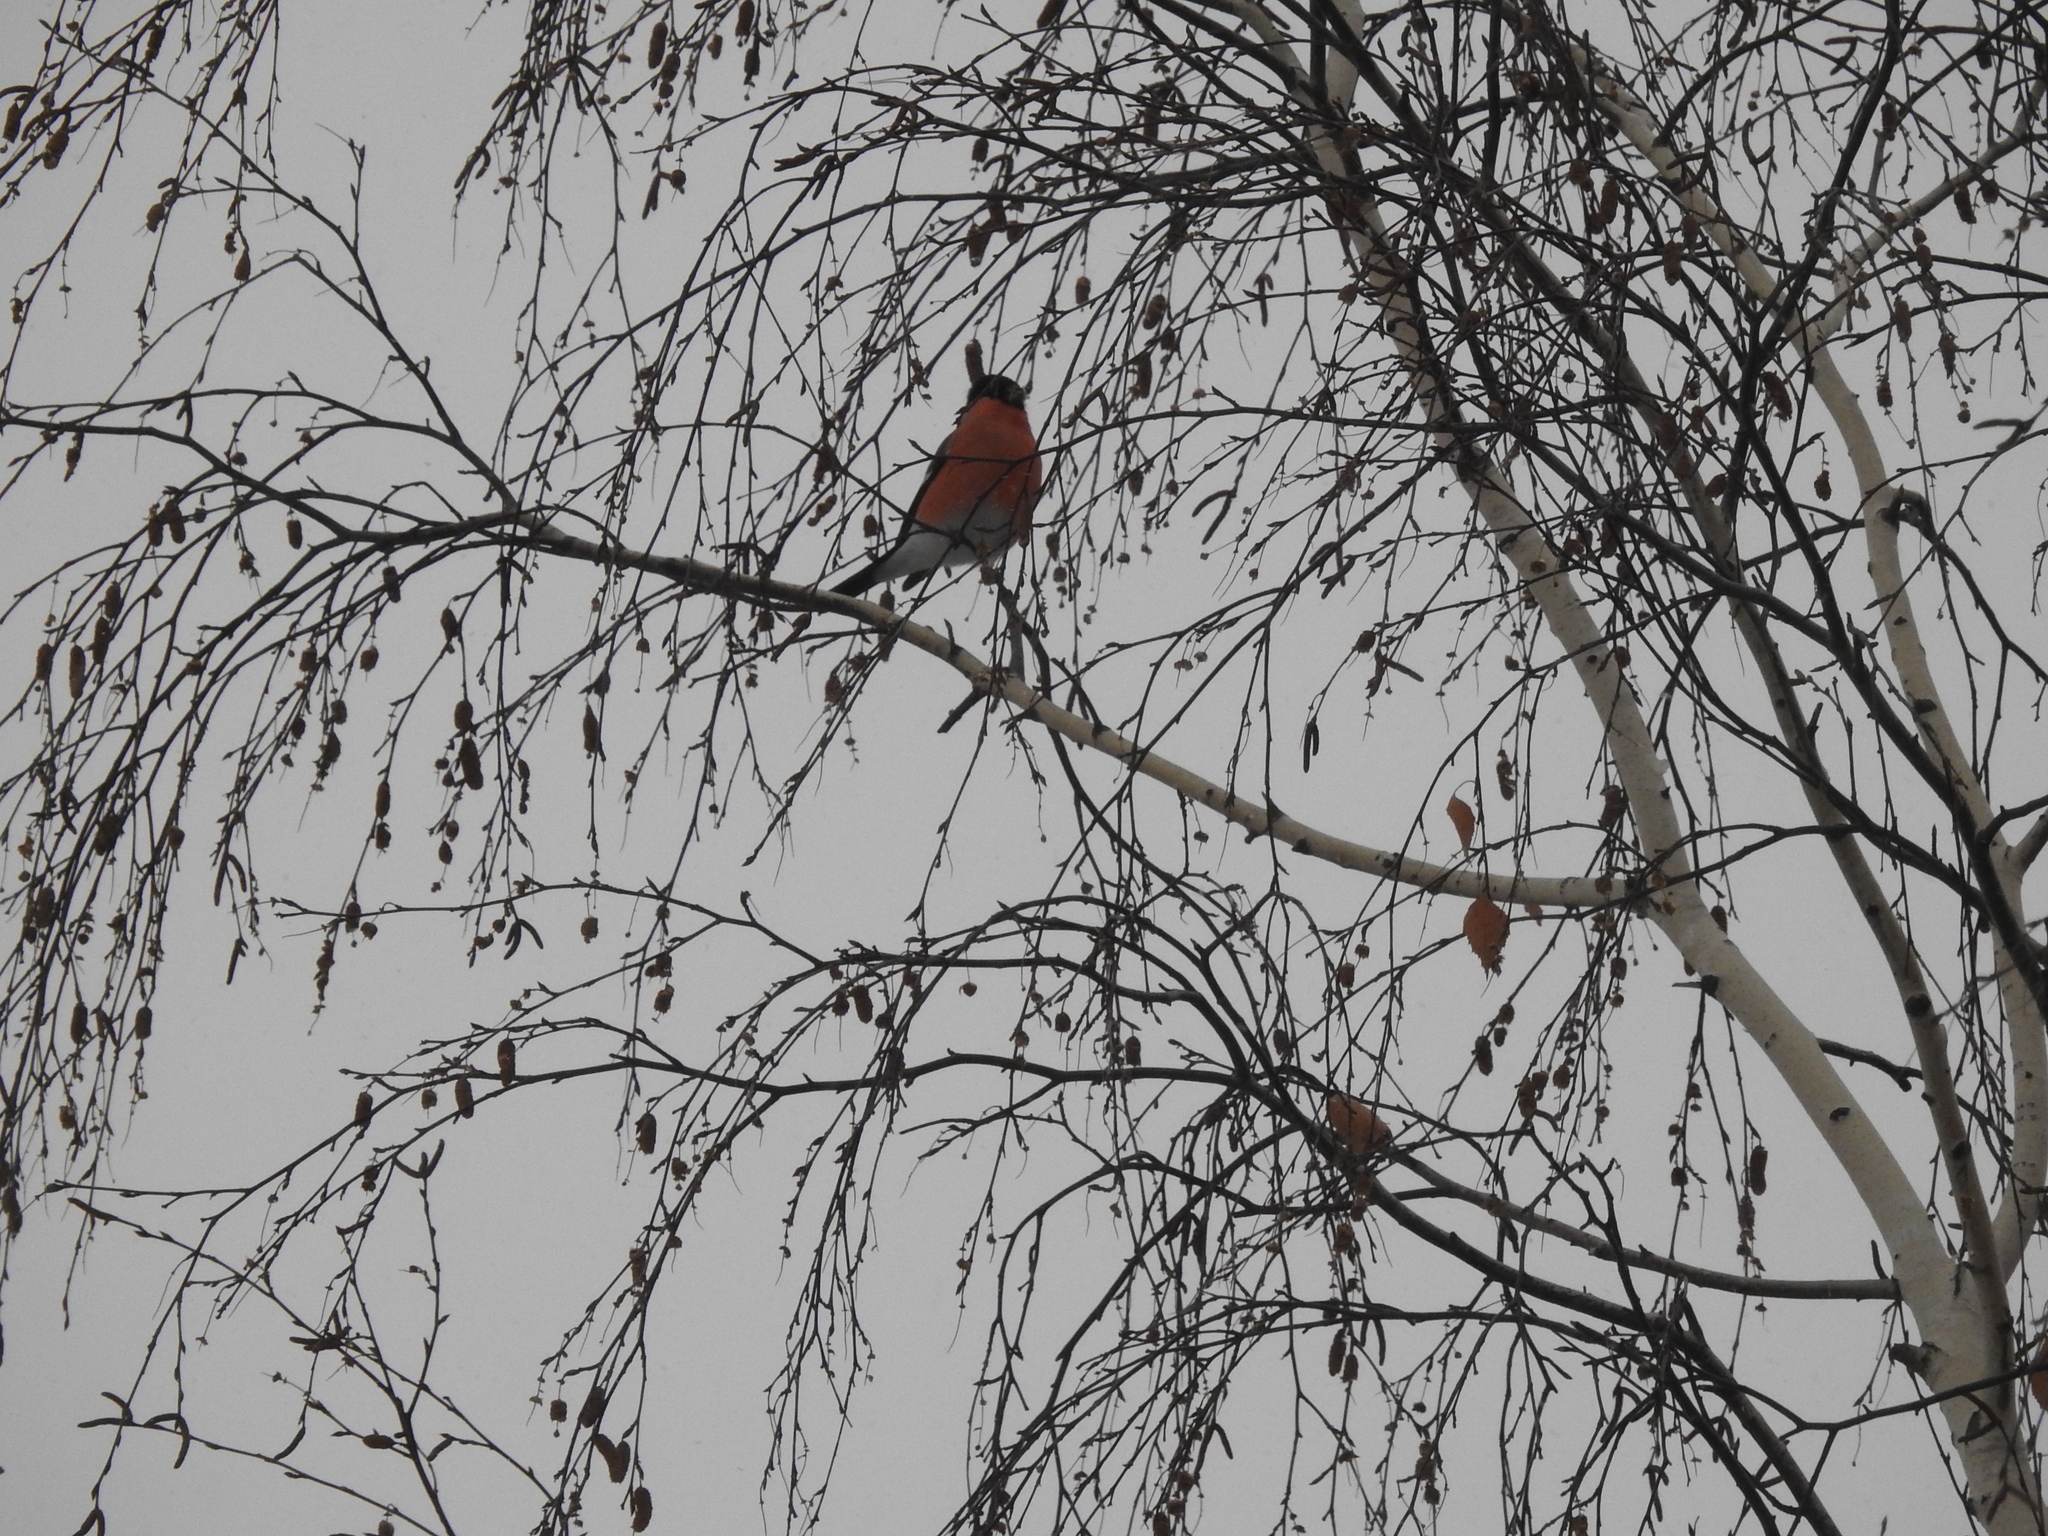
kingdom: Animalia
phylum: Chordata
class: Aves
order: Passeriformes
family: Fringillidae
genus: Pyrrhula
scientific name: Pyrrhula pyrrhula
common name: Eurasian bullfinch
